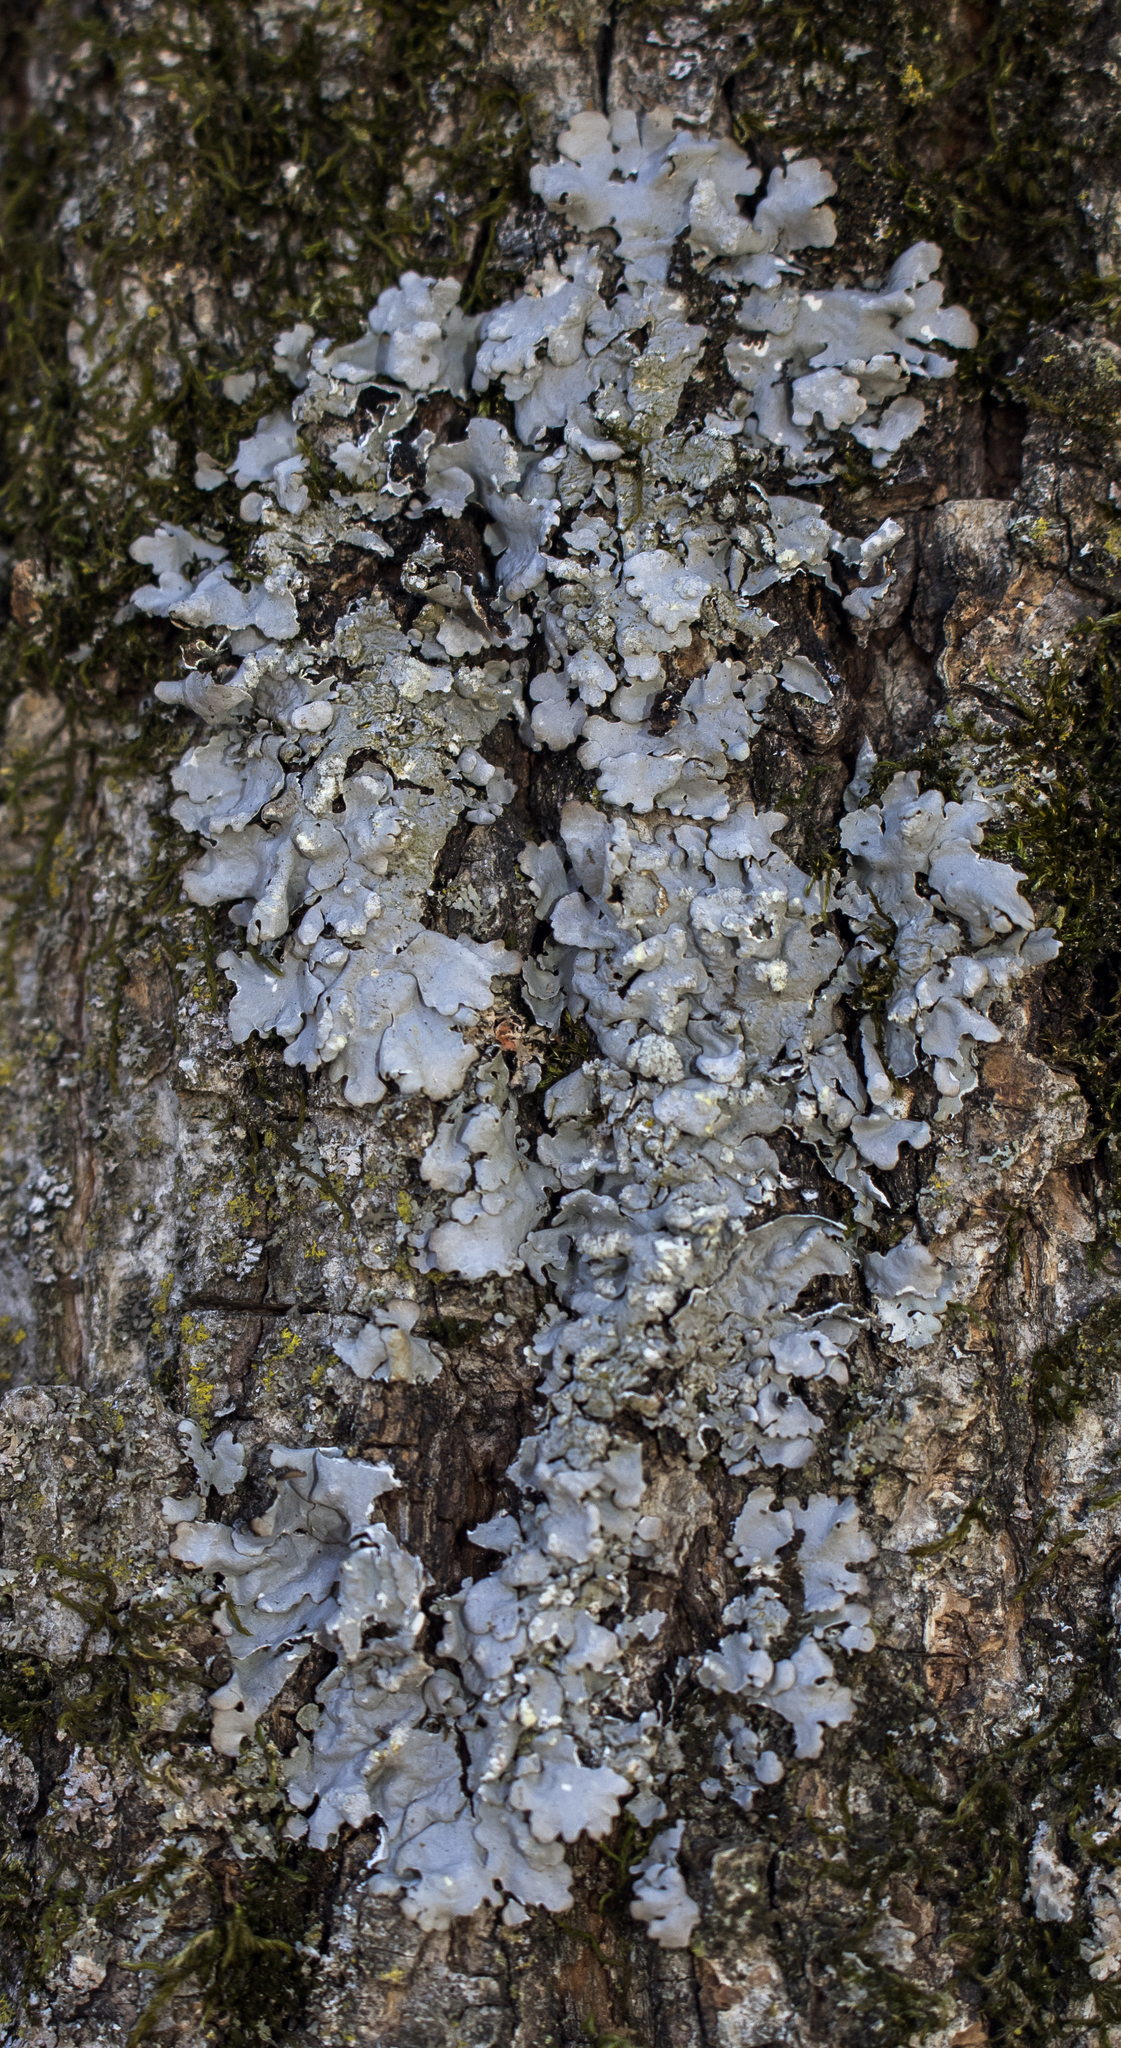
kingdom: Fungi
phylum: Ascomycota
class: Lecanoromycetes
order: Lecanorales
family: Parmeliaceae
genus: Myelochroa
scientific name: Myelochroa aurulenta
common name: Powdery axil-bristle lichen
